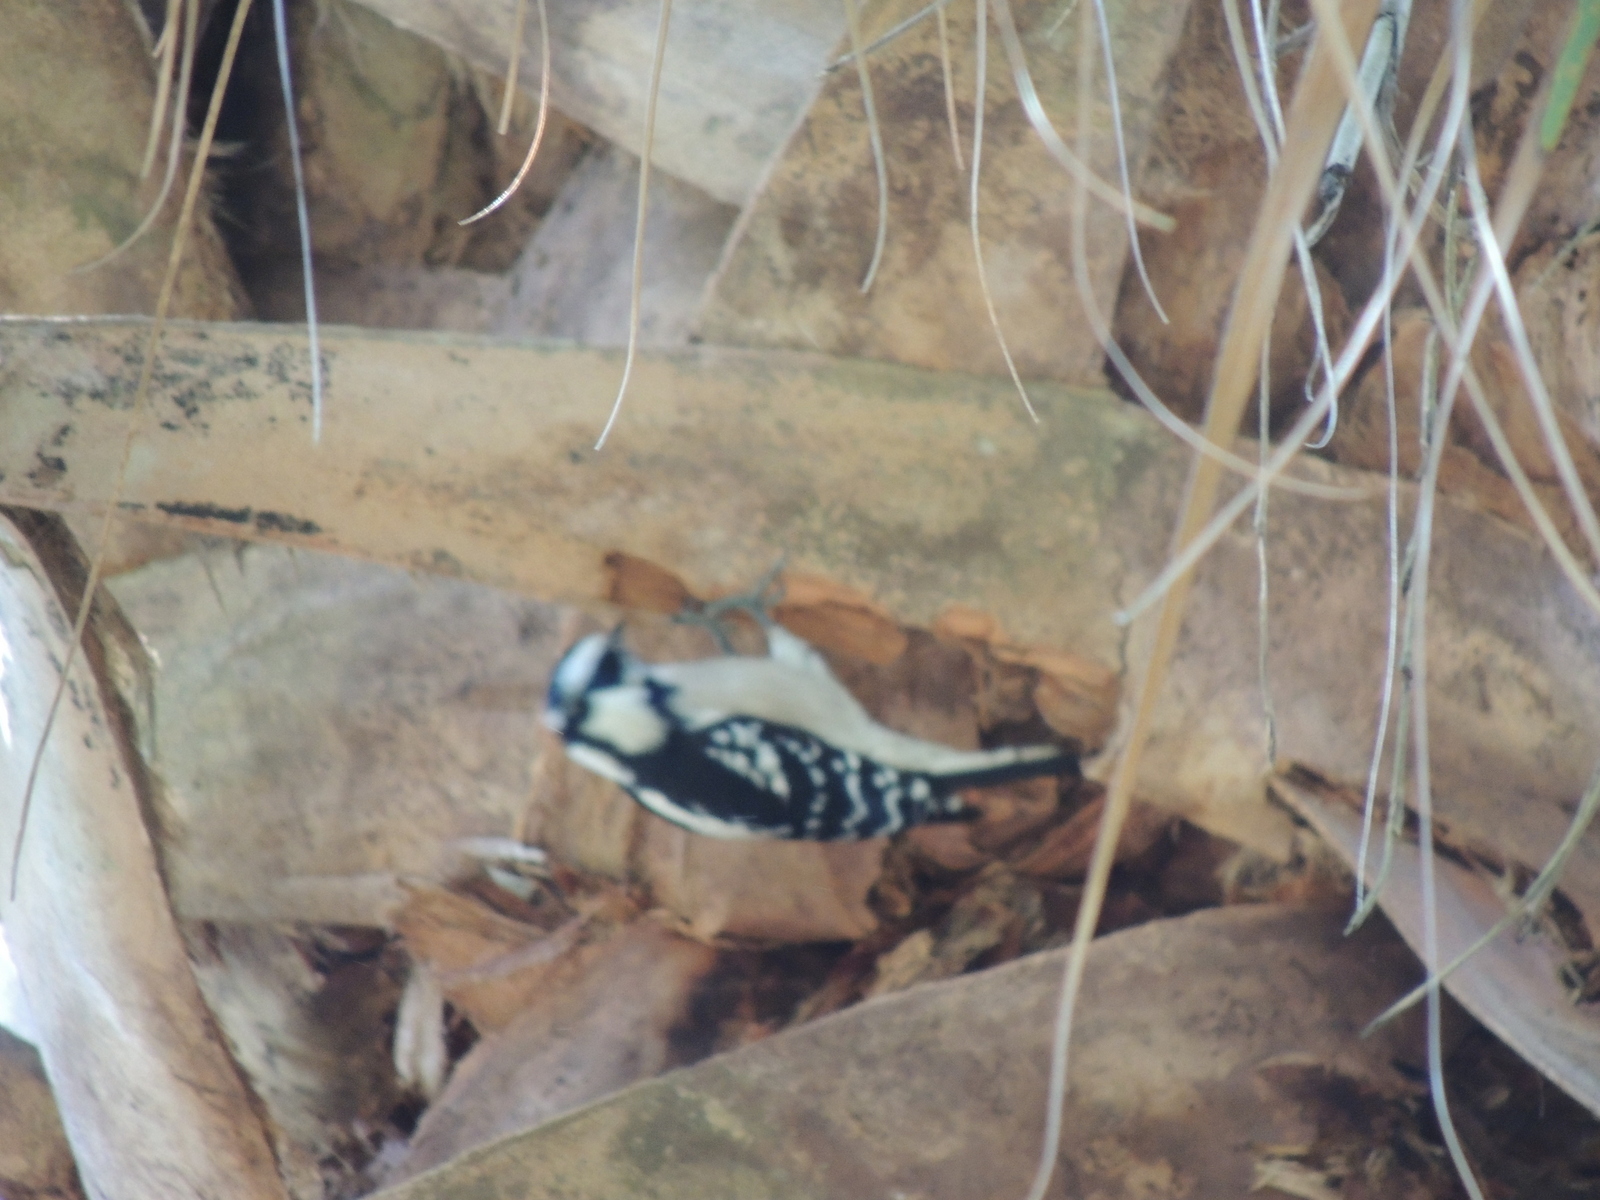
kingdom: Animalia
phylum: Chordata
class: Aves
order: Piciformes
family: Picidae
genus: Dryobates
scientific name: Dryobates pubescens
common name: Downy woodpecker
